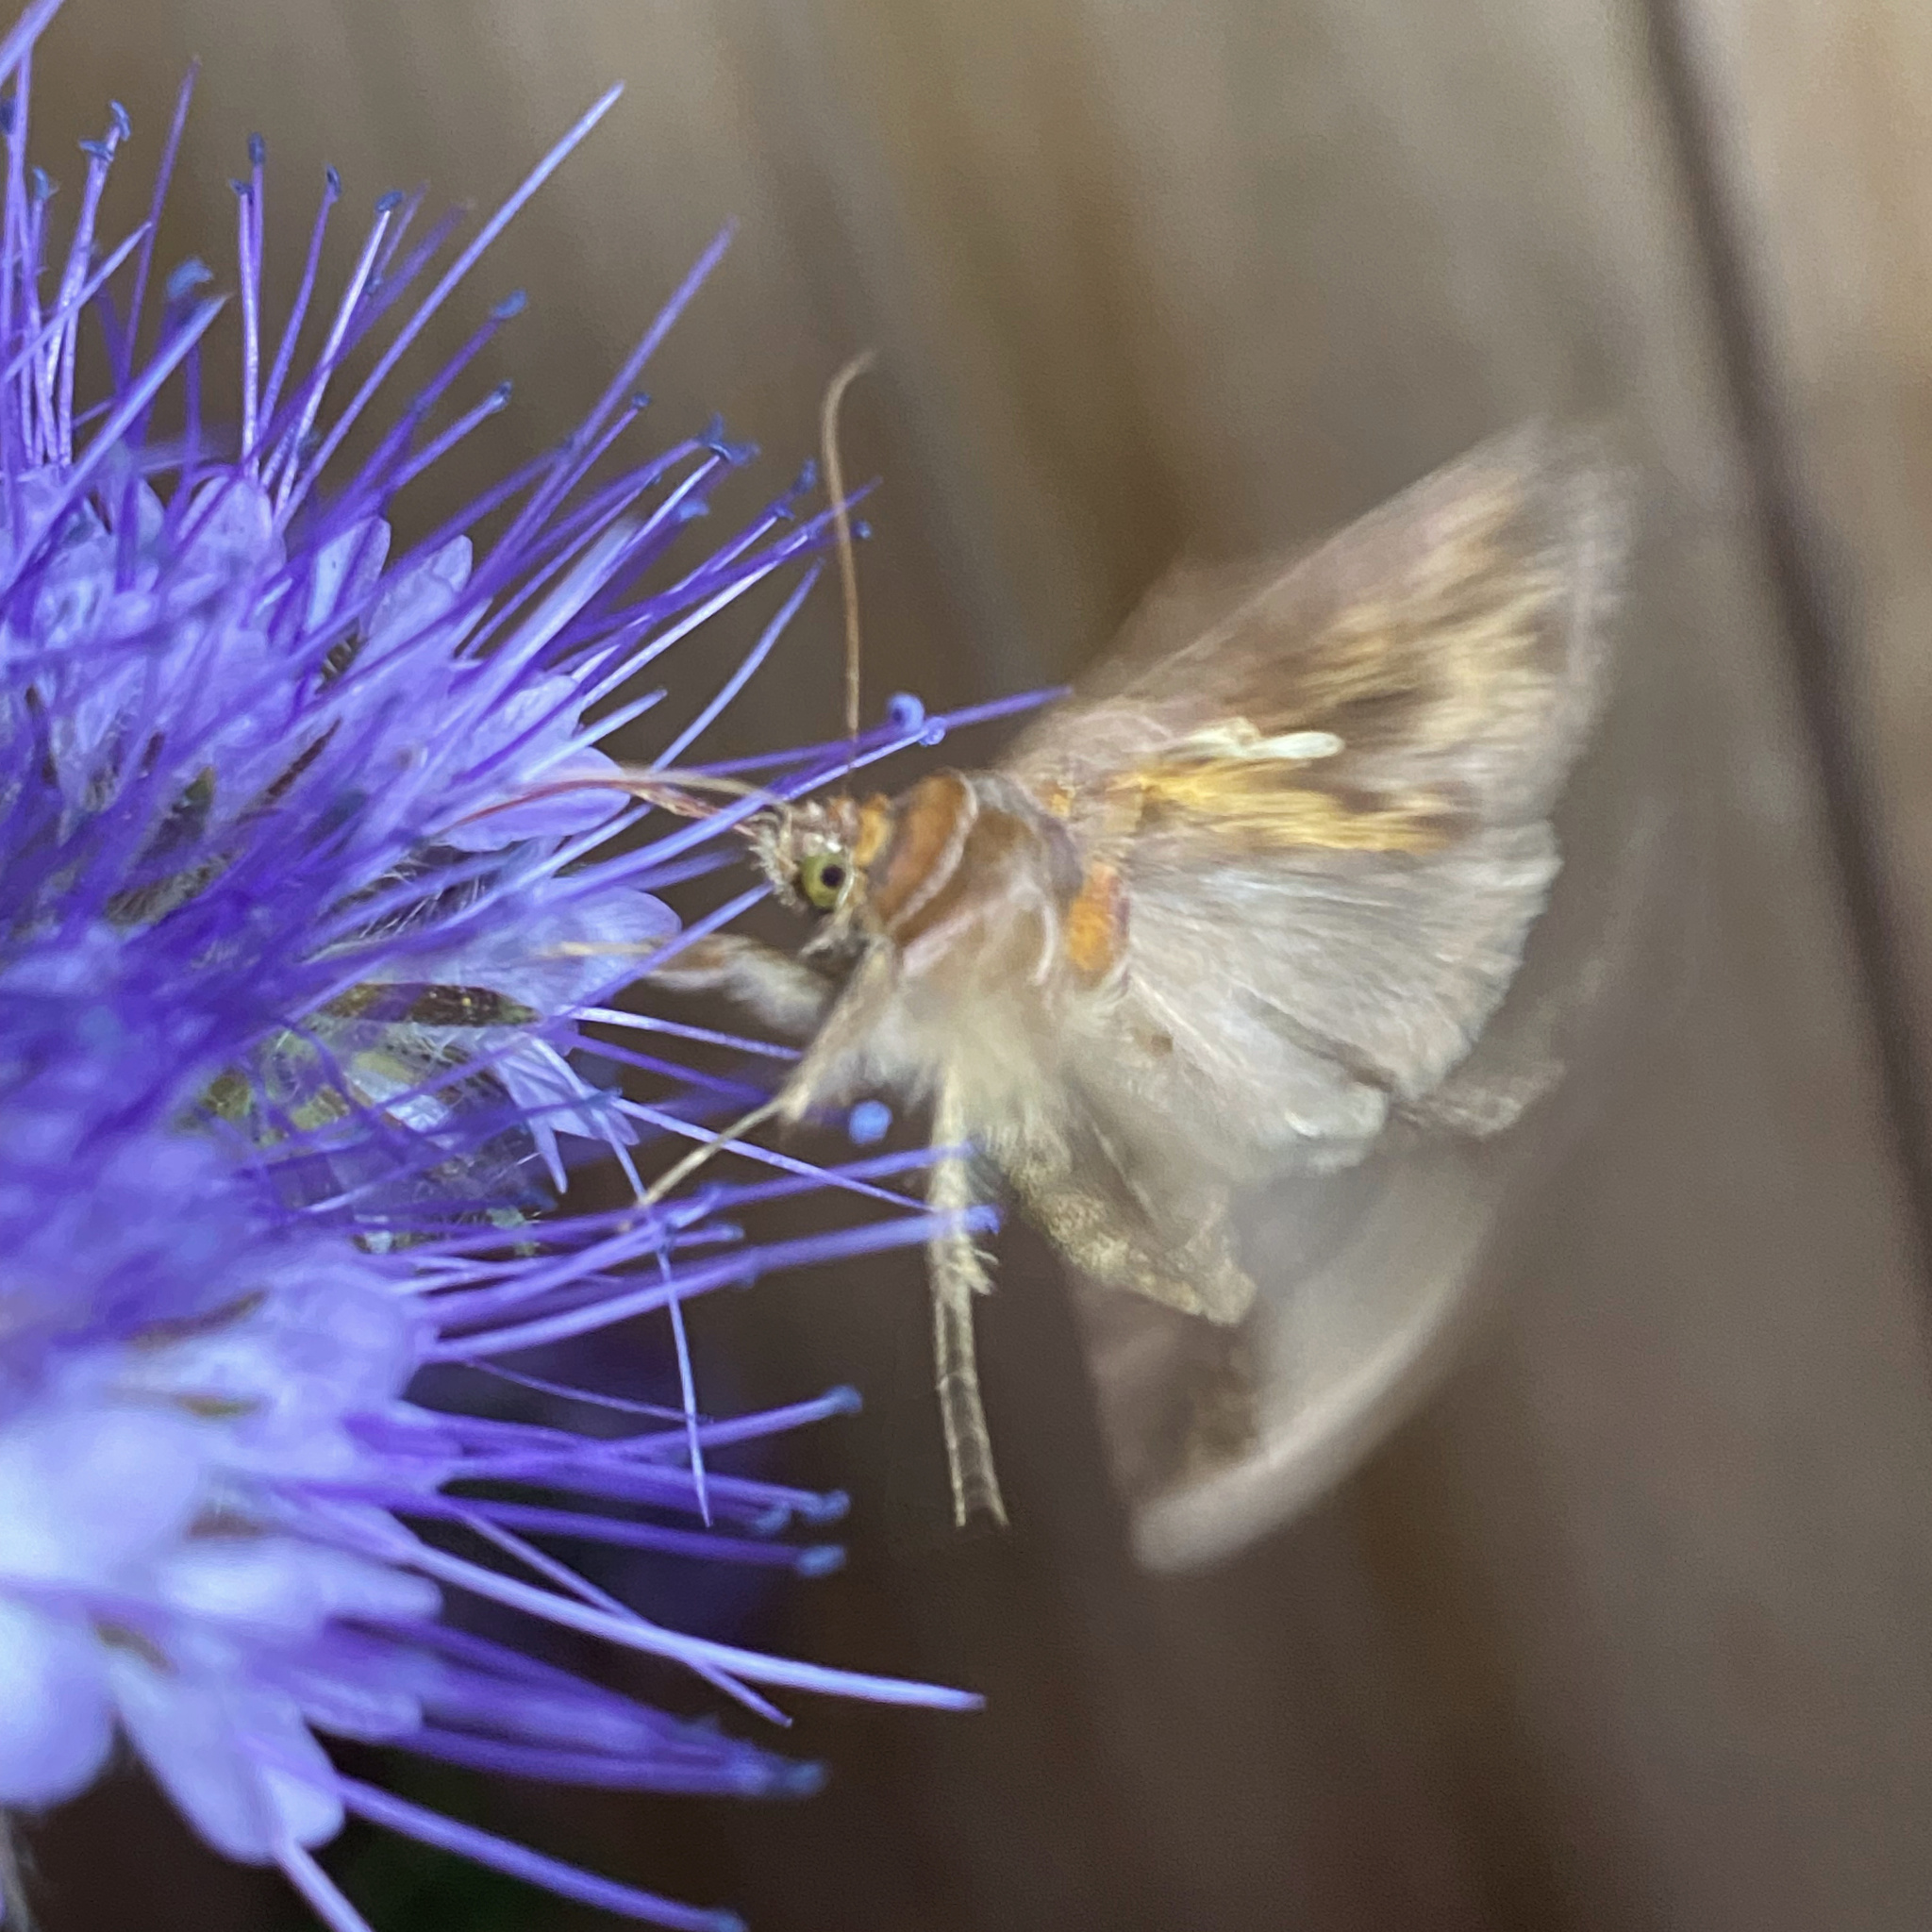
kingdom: Animalia
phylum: Arthropoda
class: Insecta
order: Lepidoptera
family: Noctuidae
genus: Chrysodeixis
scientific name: Chrysodeixis eriosoma
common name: Green garden looper
